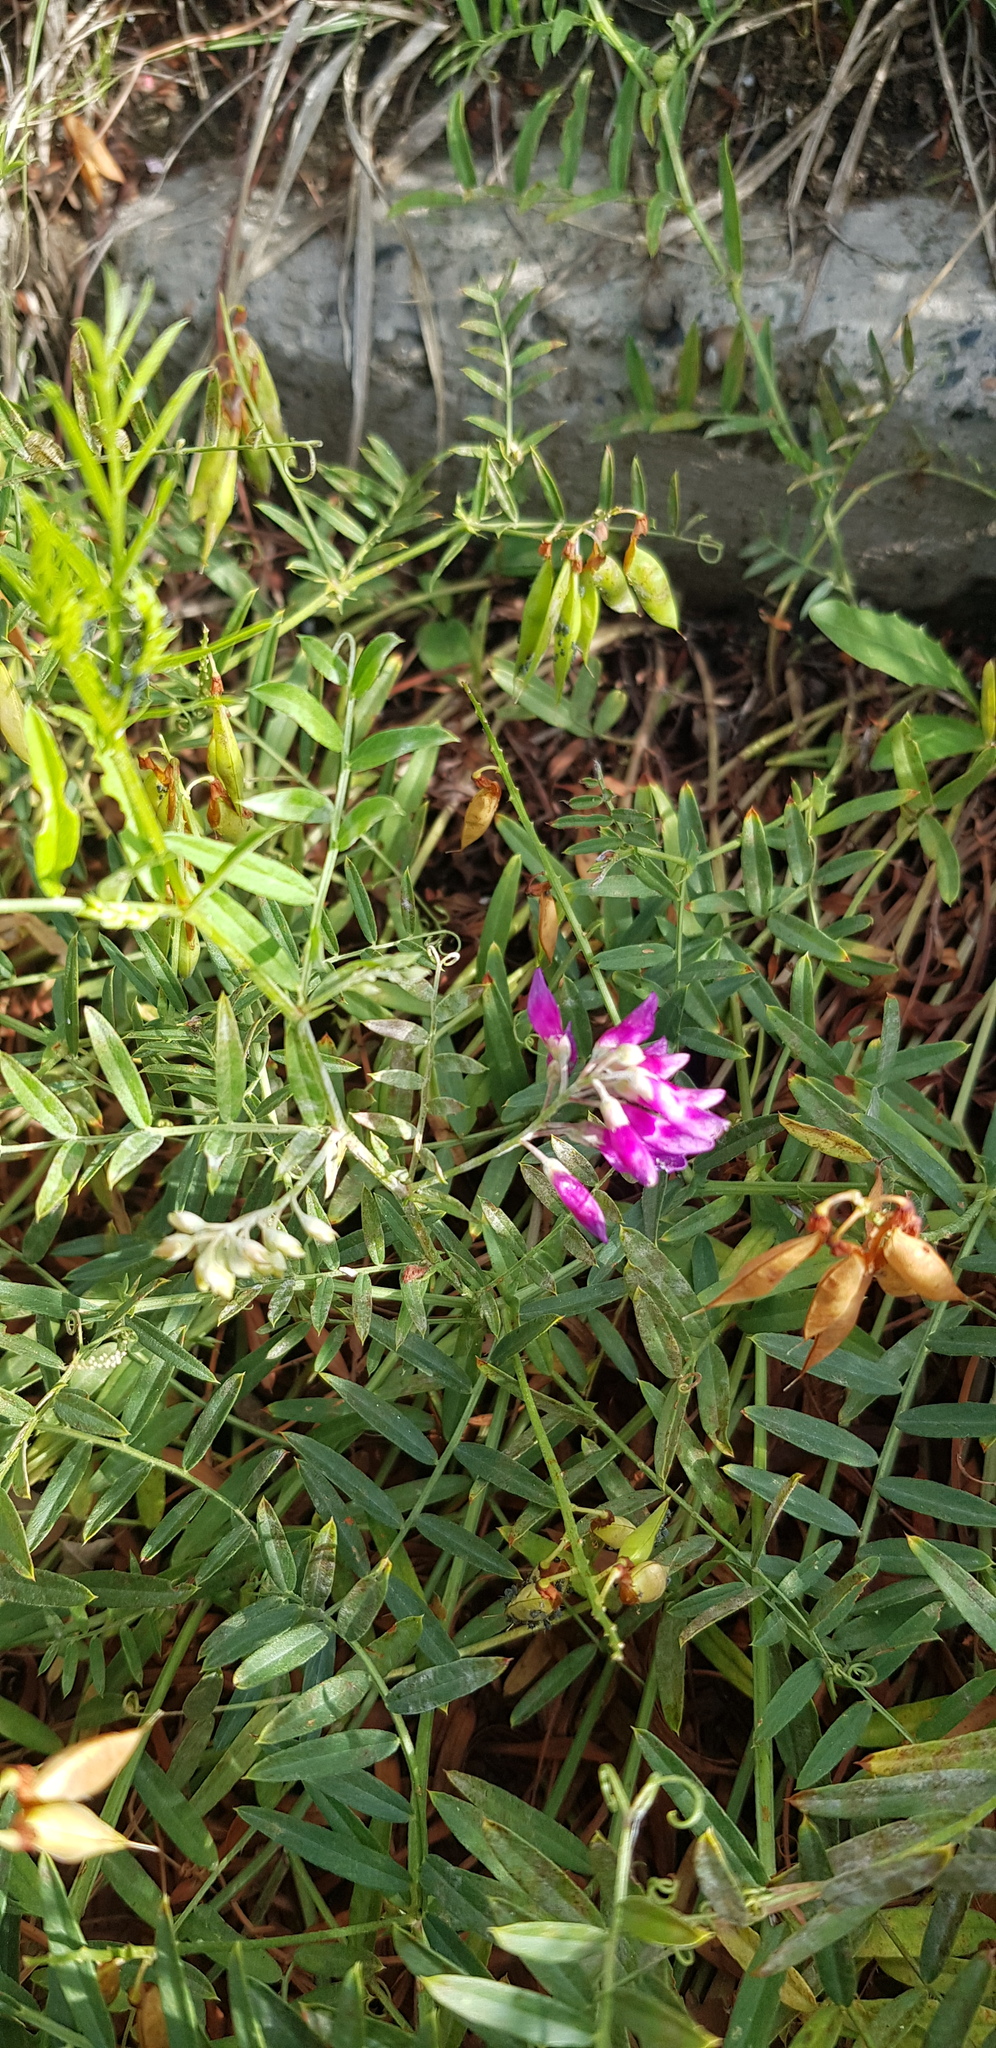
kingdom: Plantae
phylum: Tracheophyta
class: Magnoliopsida
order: Fabales
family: Fabaceae
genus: Vicia
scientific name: Vicia amoena
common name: Cheder ebs
